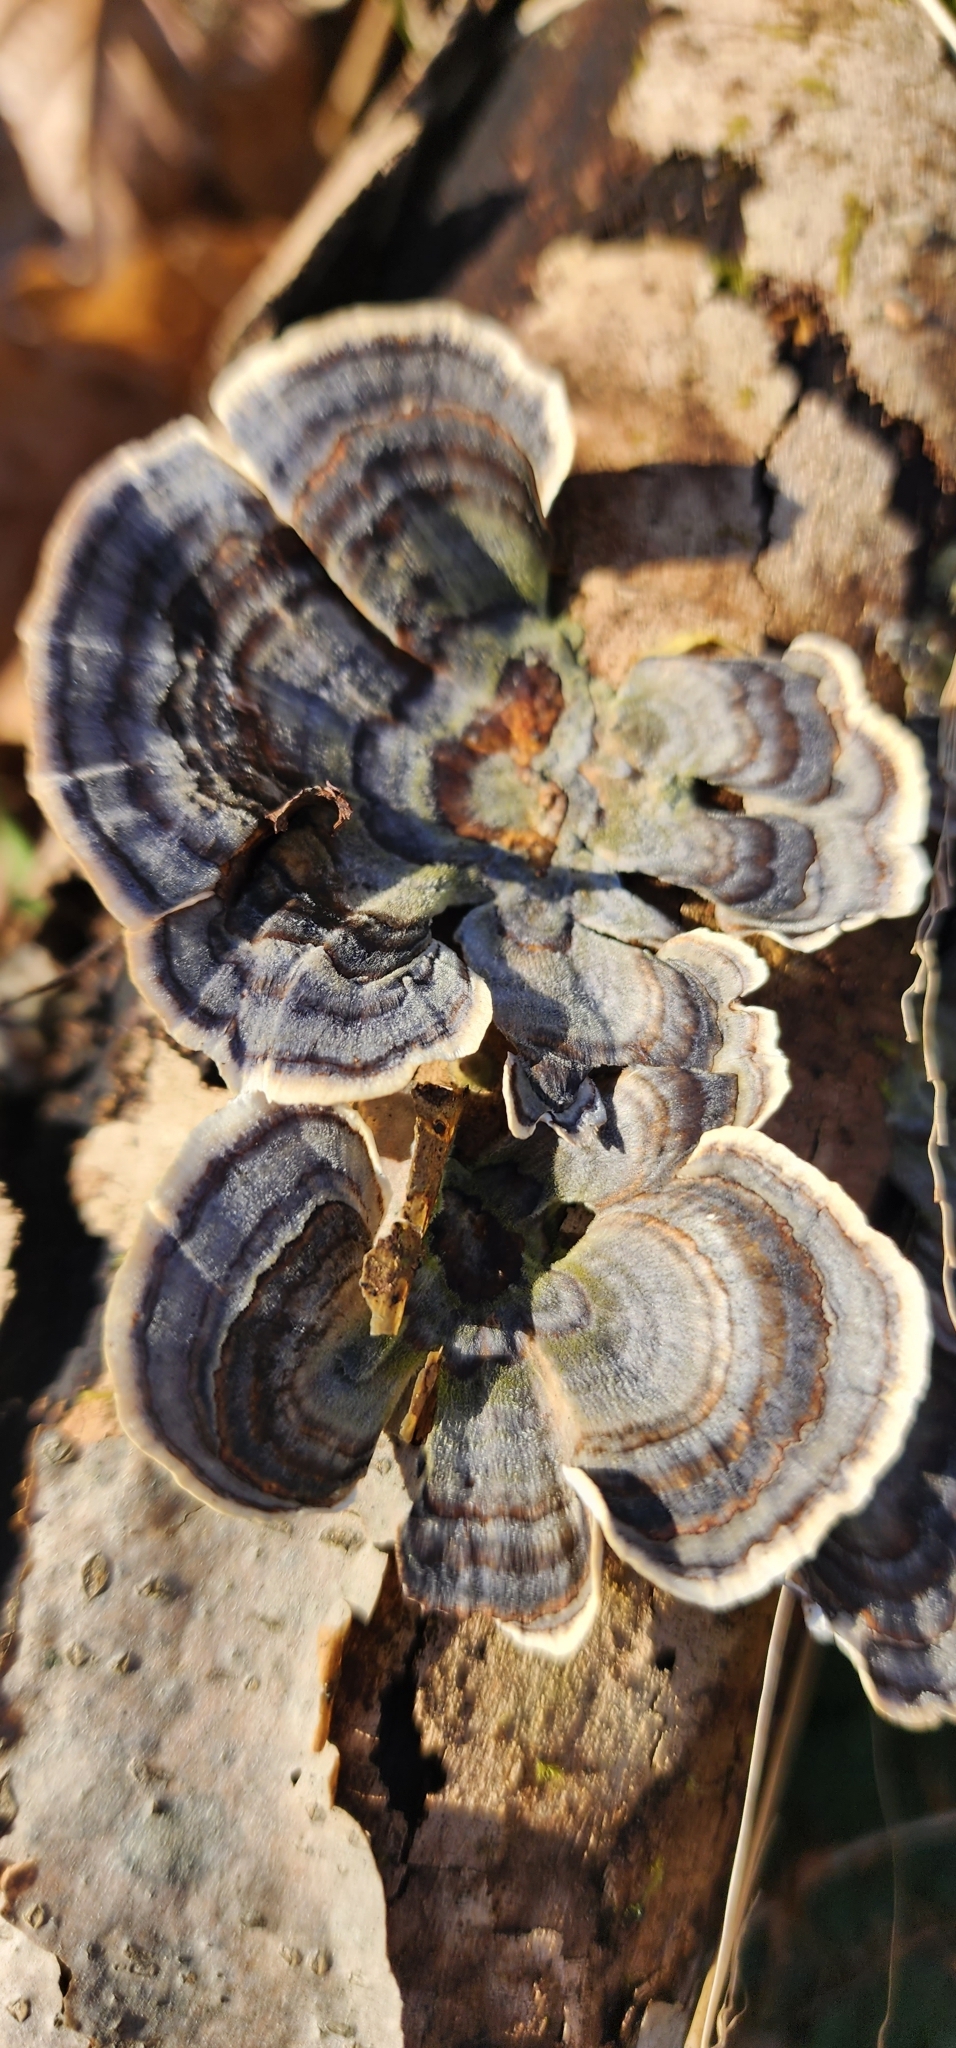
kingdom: Fungi
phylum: Basidiomycota
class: Agaricomycetes
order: Polyporales
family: Polyporaceae
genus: Trametes
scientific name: Trametes versicolor
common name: Turkeytail
